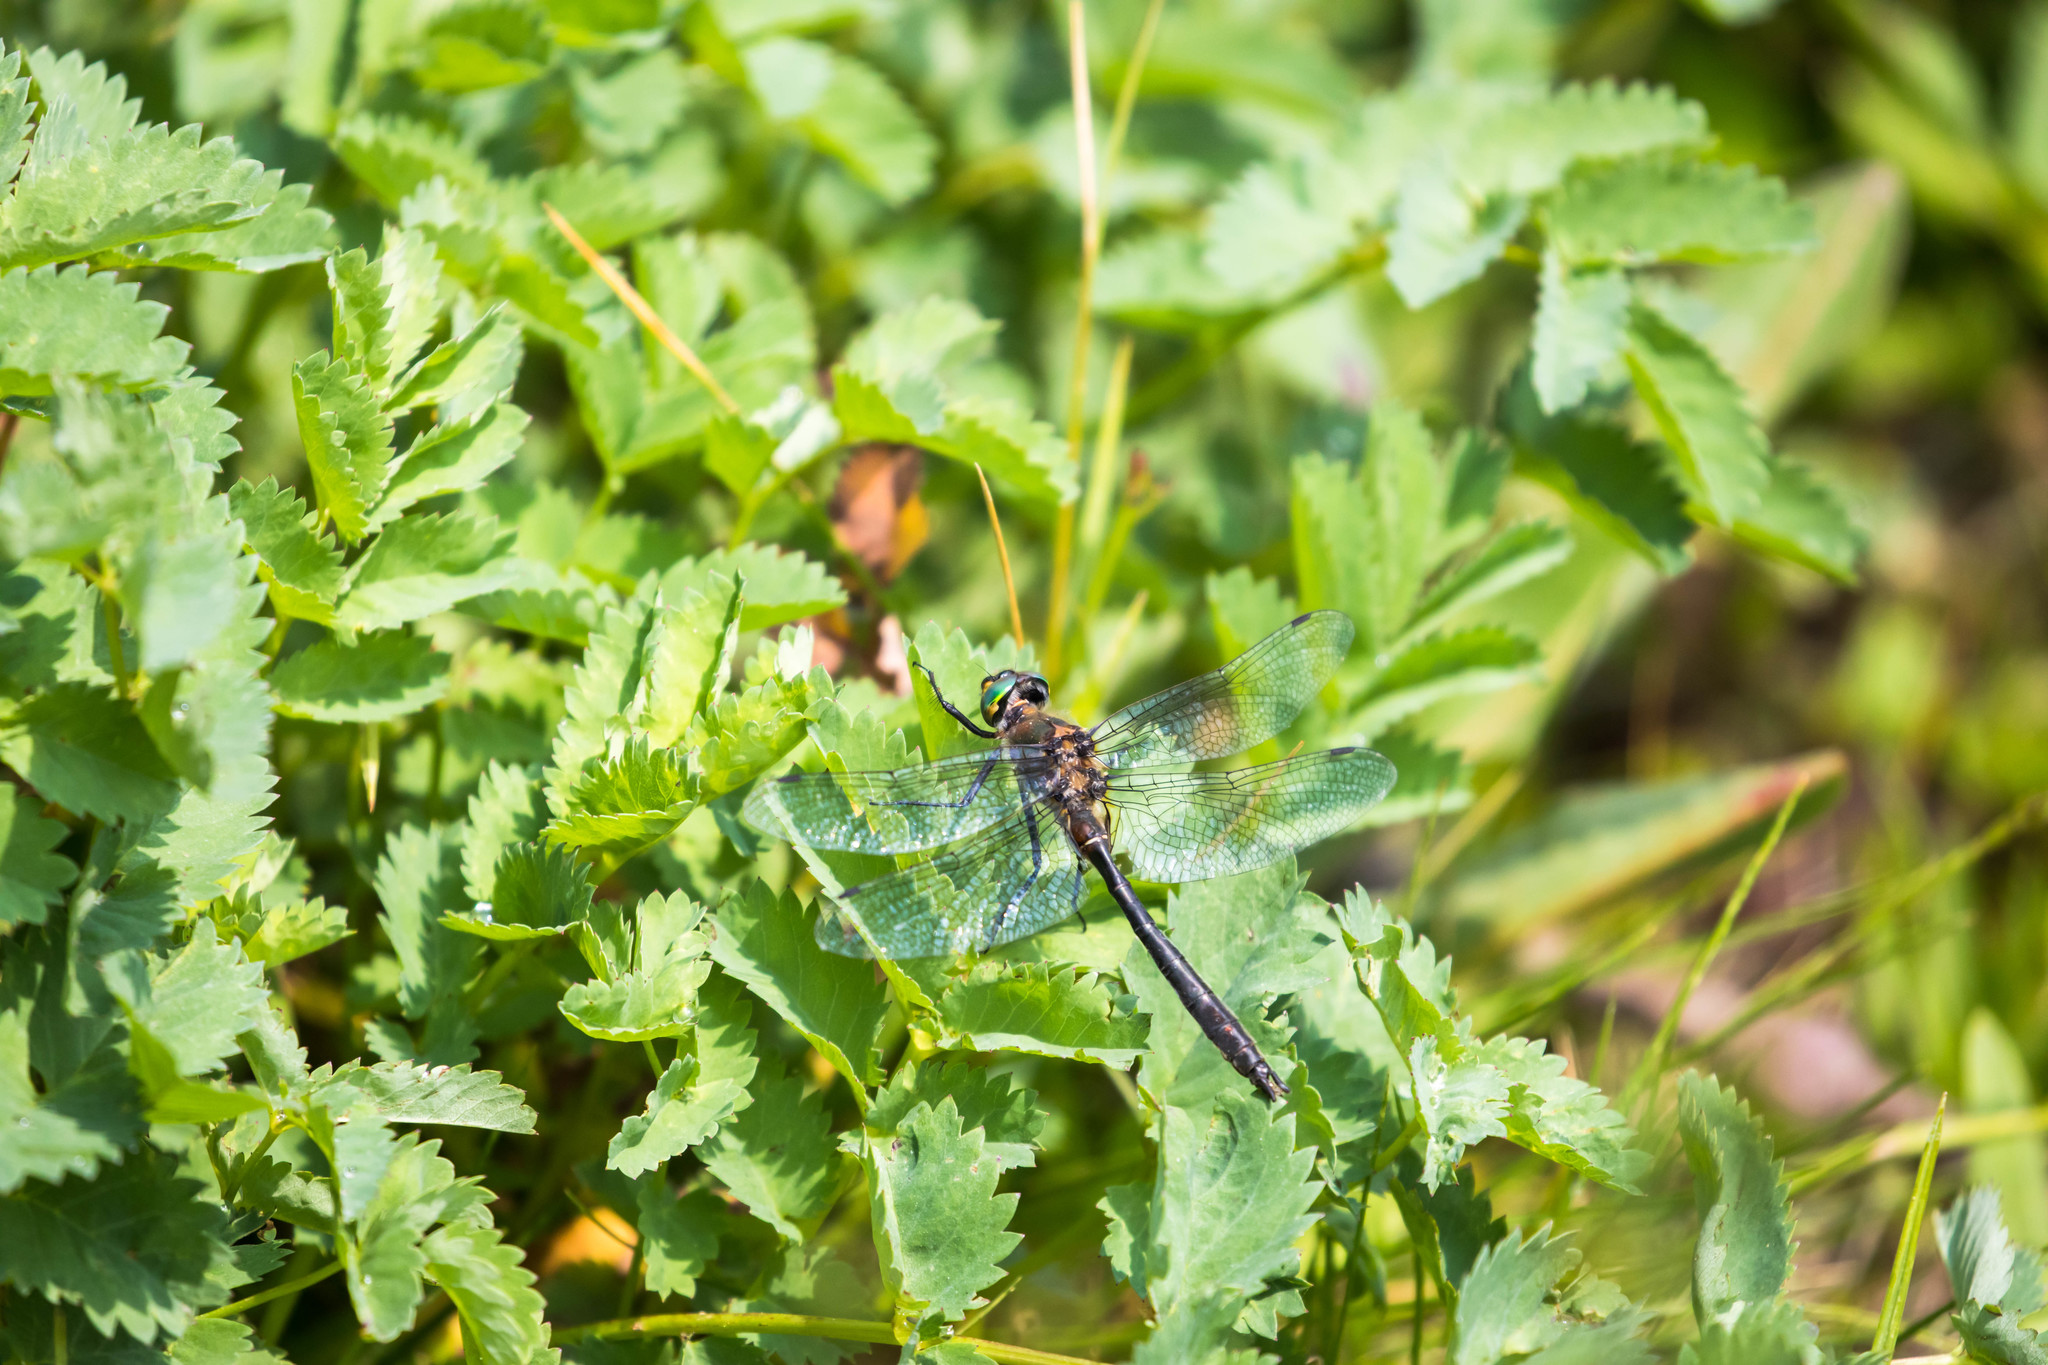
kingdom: Animalia
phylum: Arthropoda
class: Insecta
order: Odonata
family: Corduliidae
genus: Cordulia
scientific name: Cordulia shurtleffii
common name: American emerald
